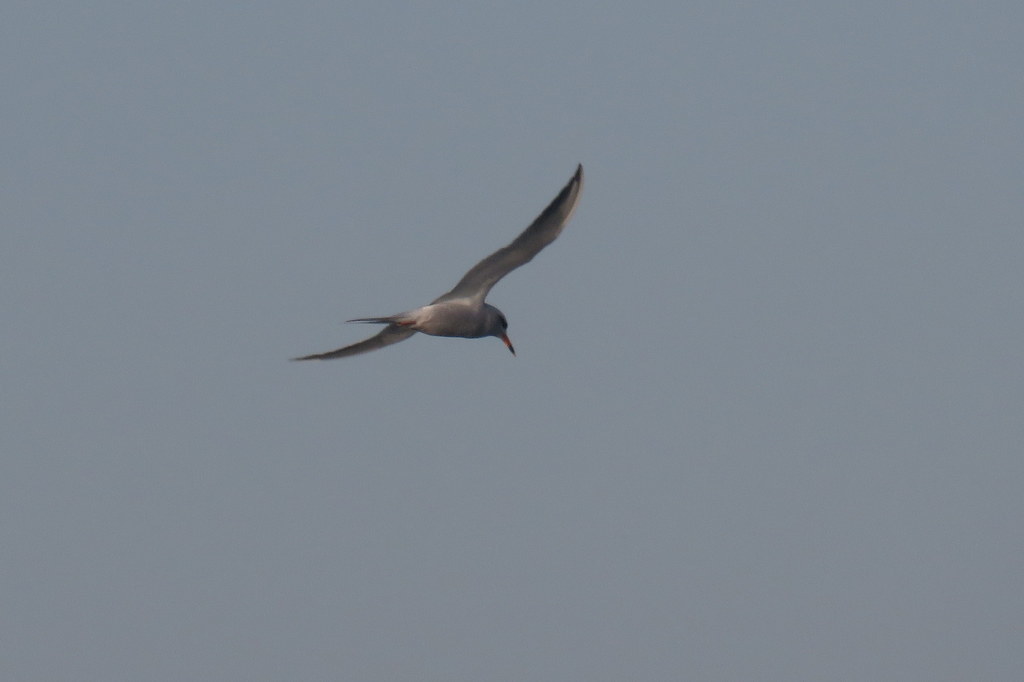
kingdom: Animalia
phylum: Chordata
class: Aves
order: Charadriiformes
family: Laridae
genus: Sterna
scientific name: Sterna trudeaui
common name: Snowy-crowned tern
